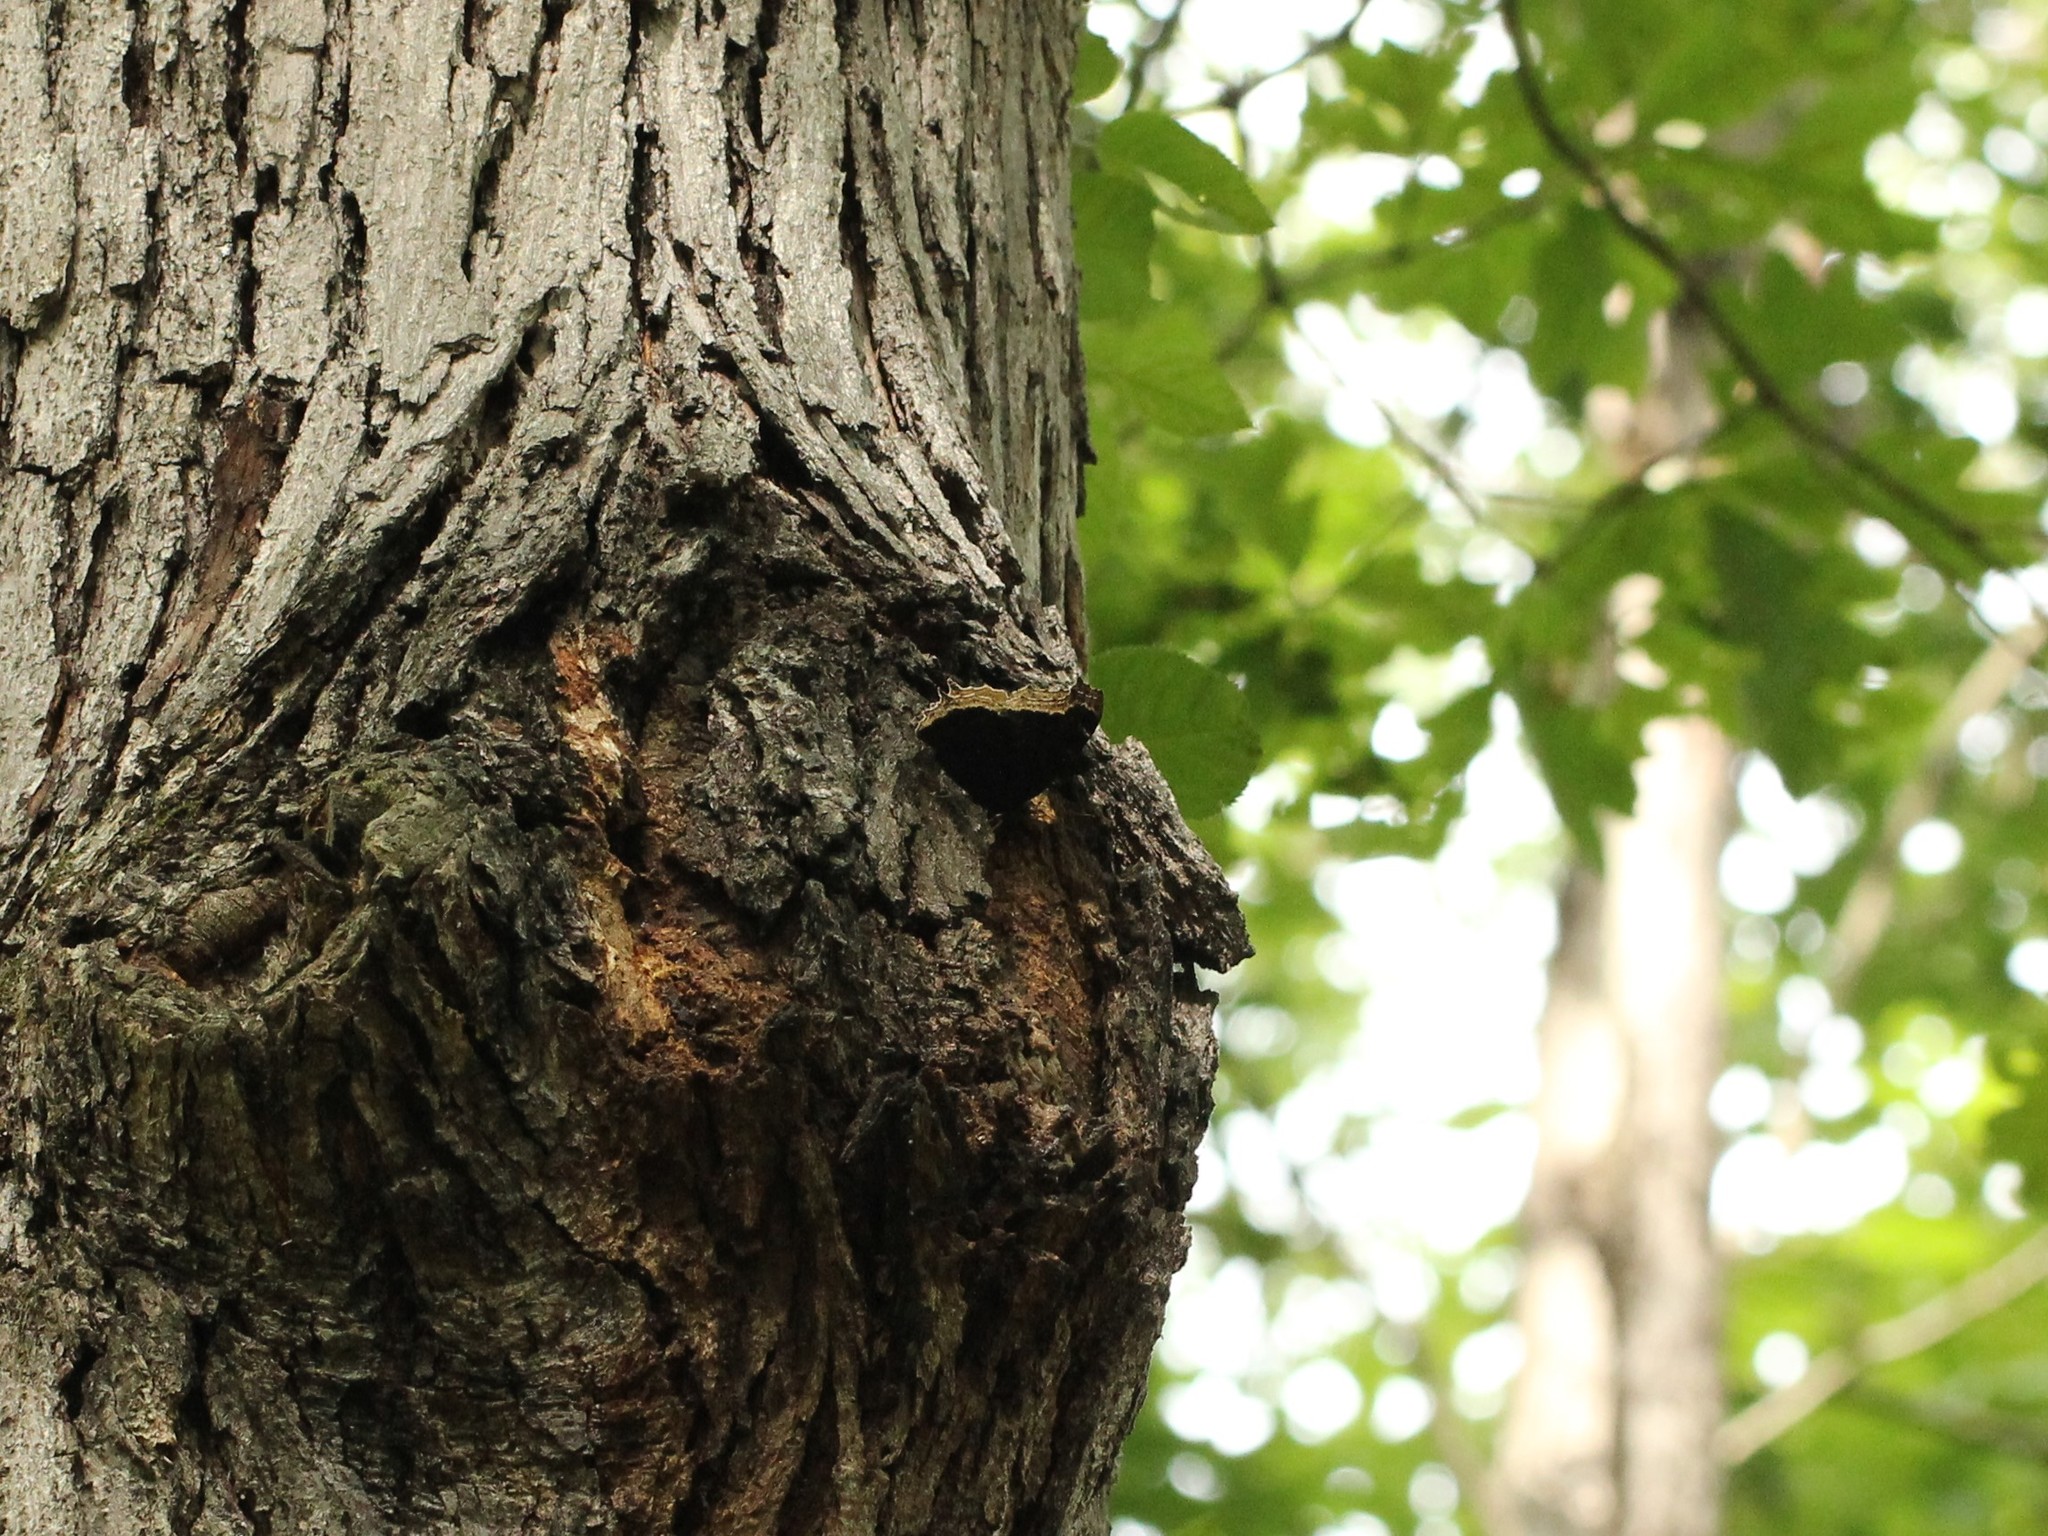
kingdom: Animalia
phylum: Arthropoda
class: Insecta
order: Lepidoptera
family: Nymphalidae
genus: Nymphalis
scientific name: Nymphalis antiopa
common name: Camberwell beauty
